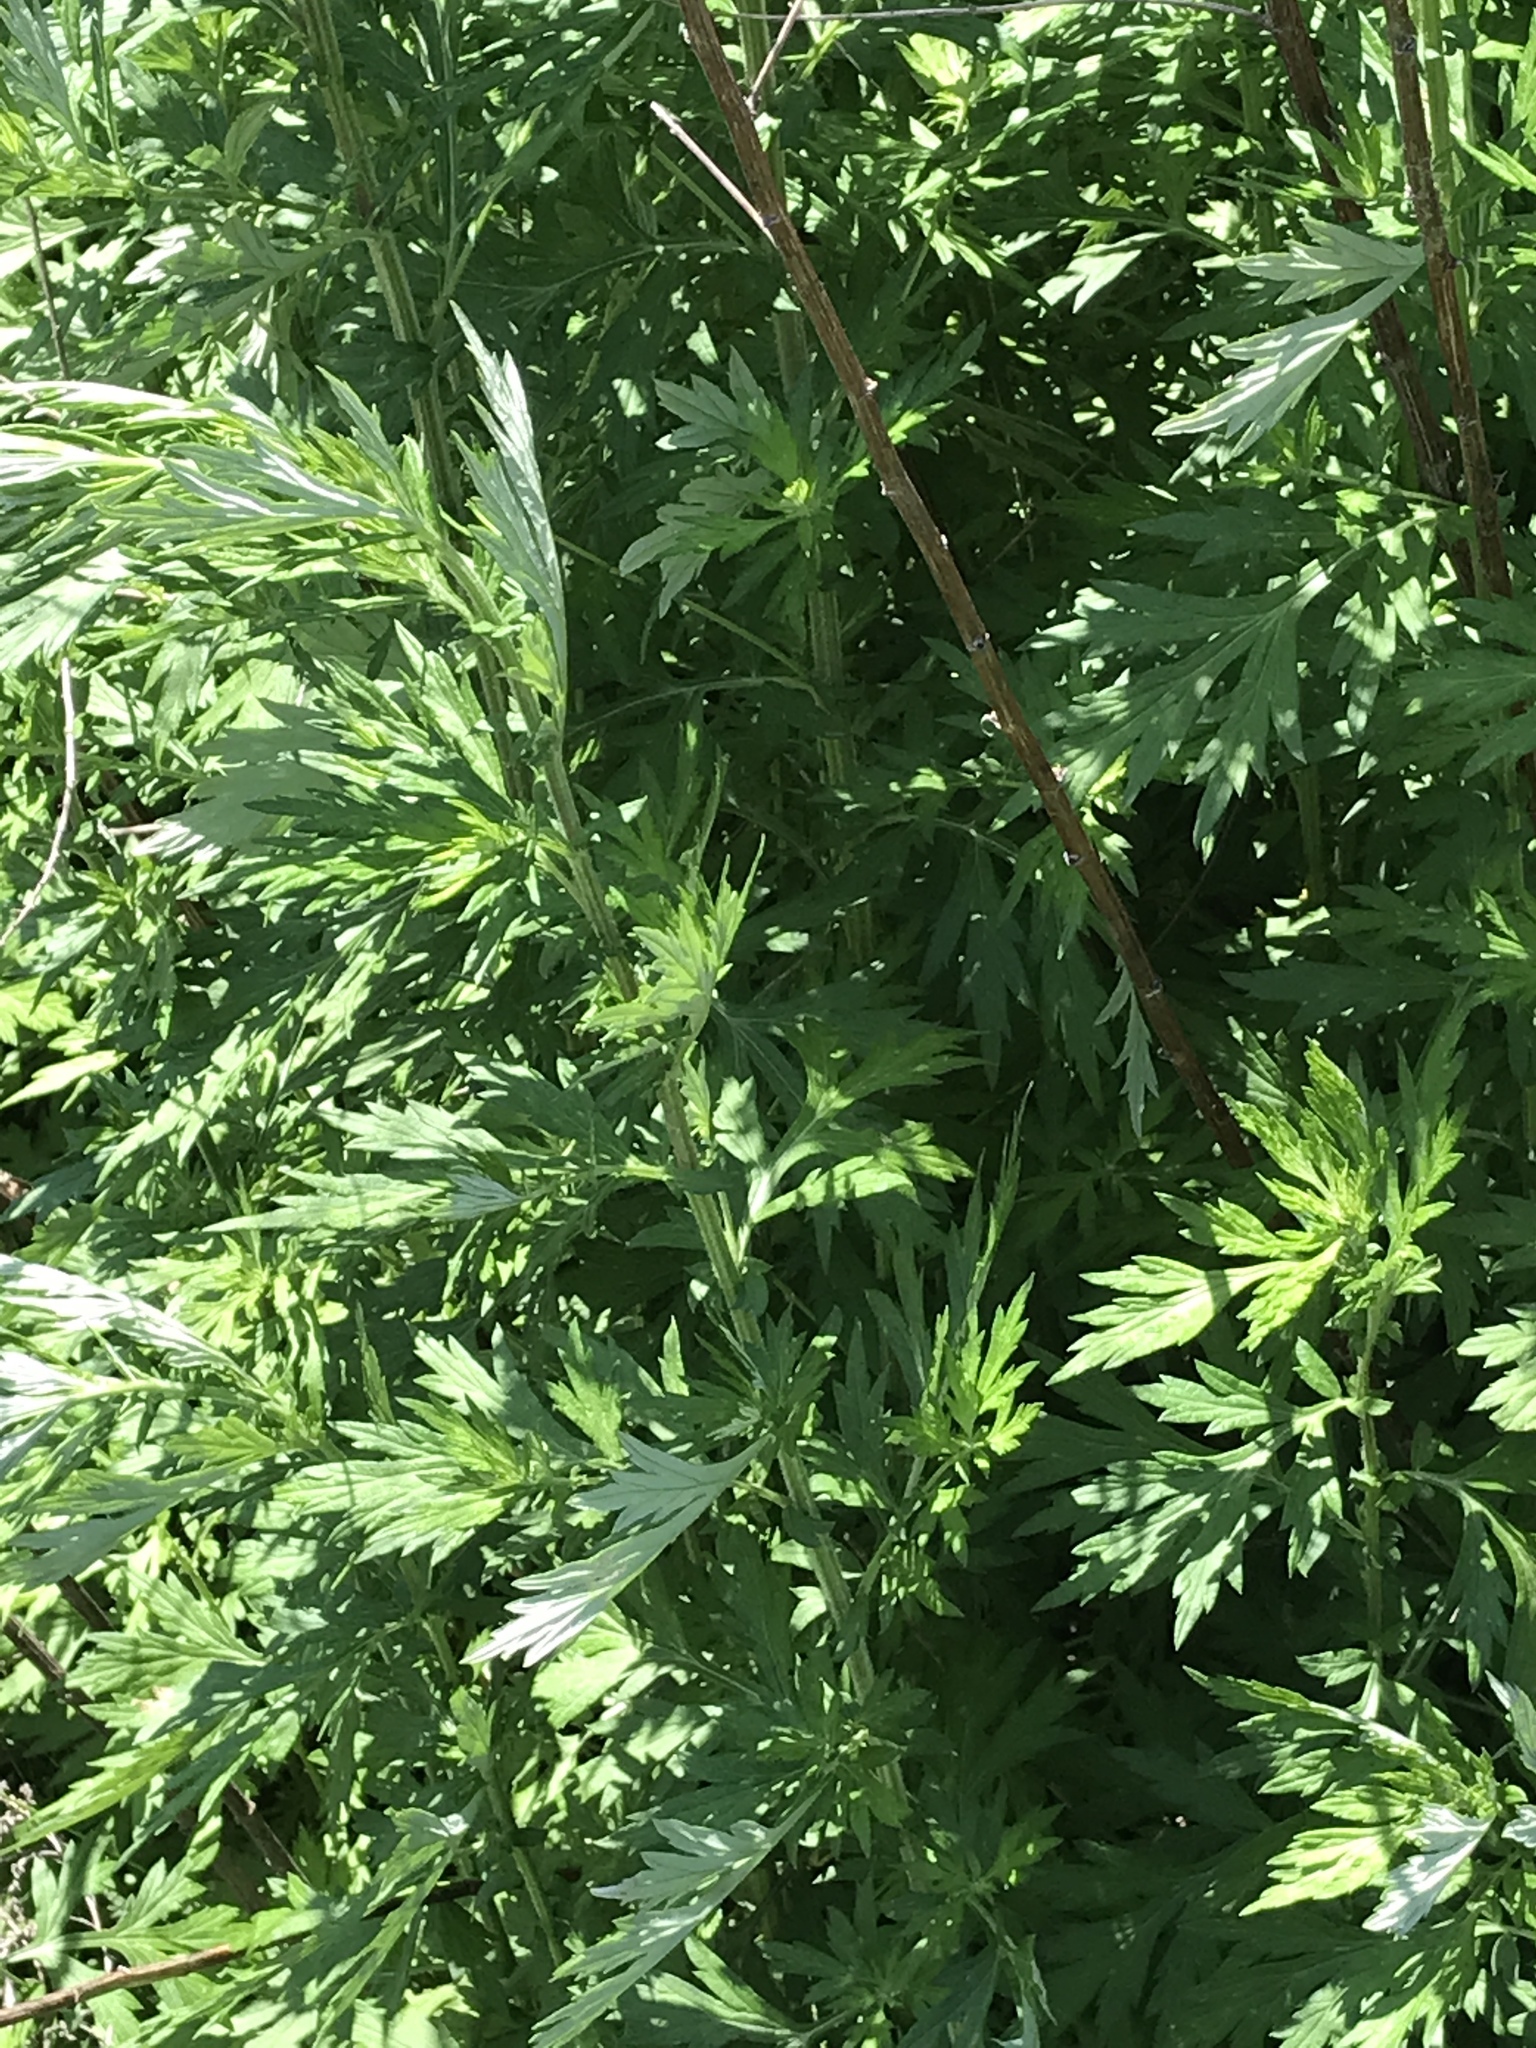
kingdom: Plantae
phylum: Tracheophyta
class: Magnoliopsida
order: Asterales
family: Asteraceae
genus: Artemisia
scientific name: Artemisia vulgaris
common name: Mugwort
